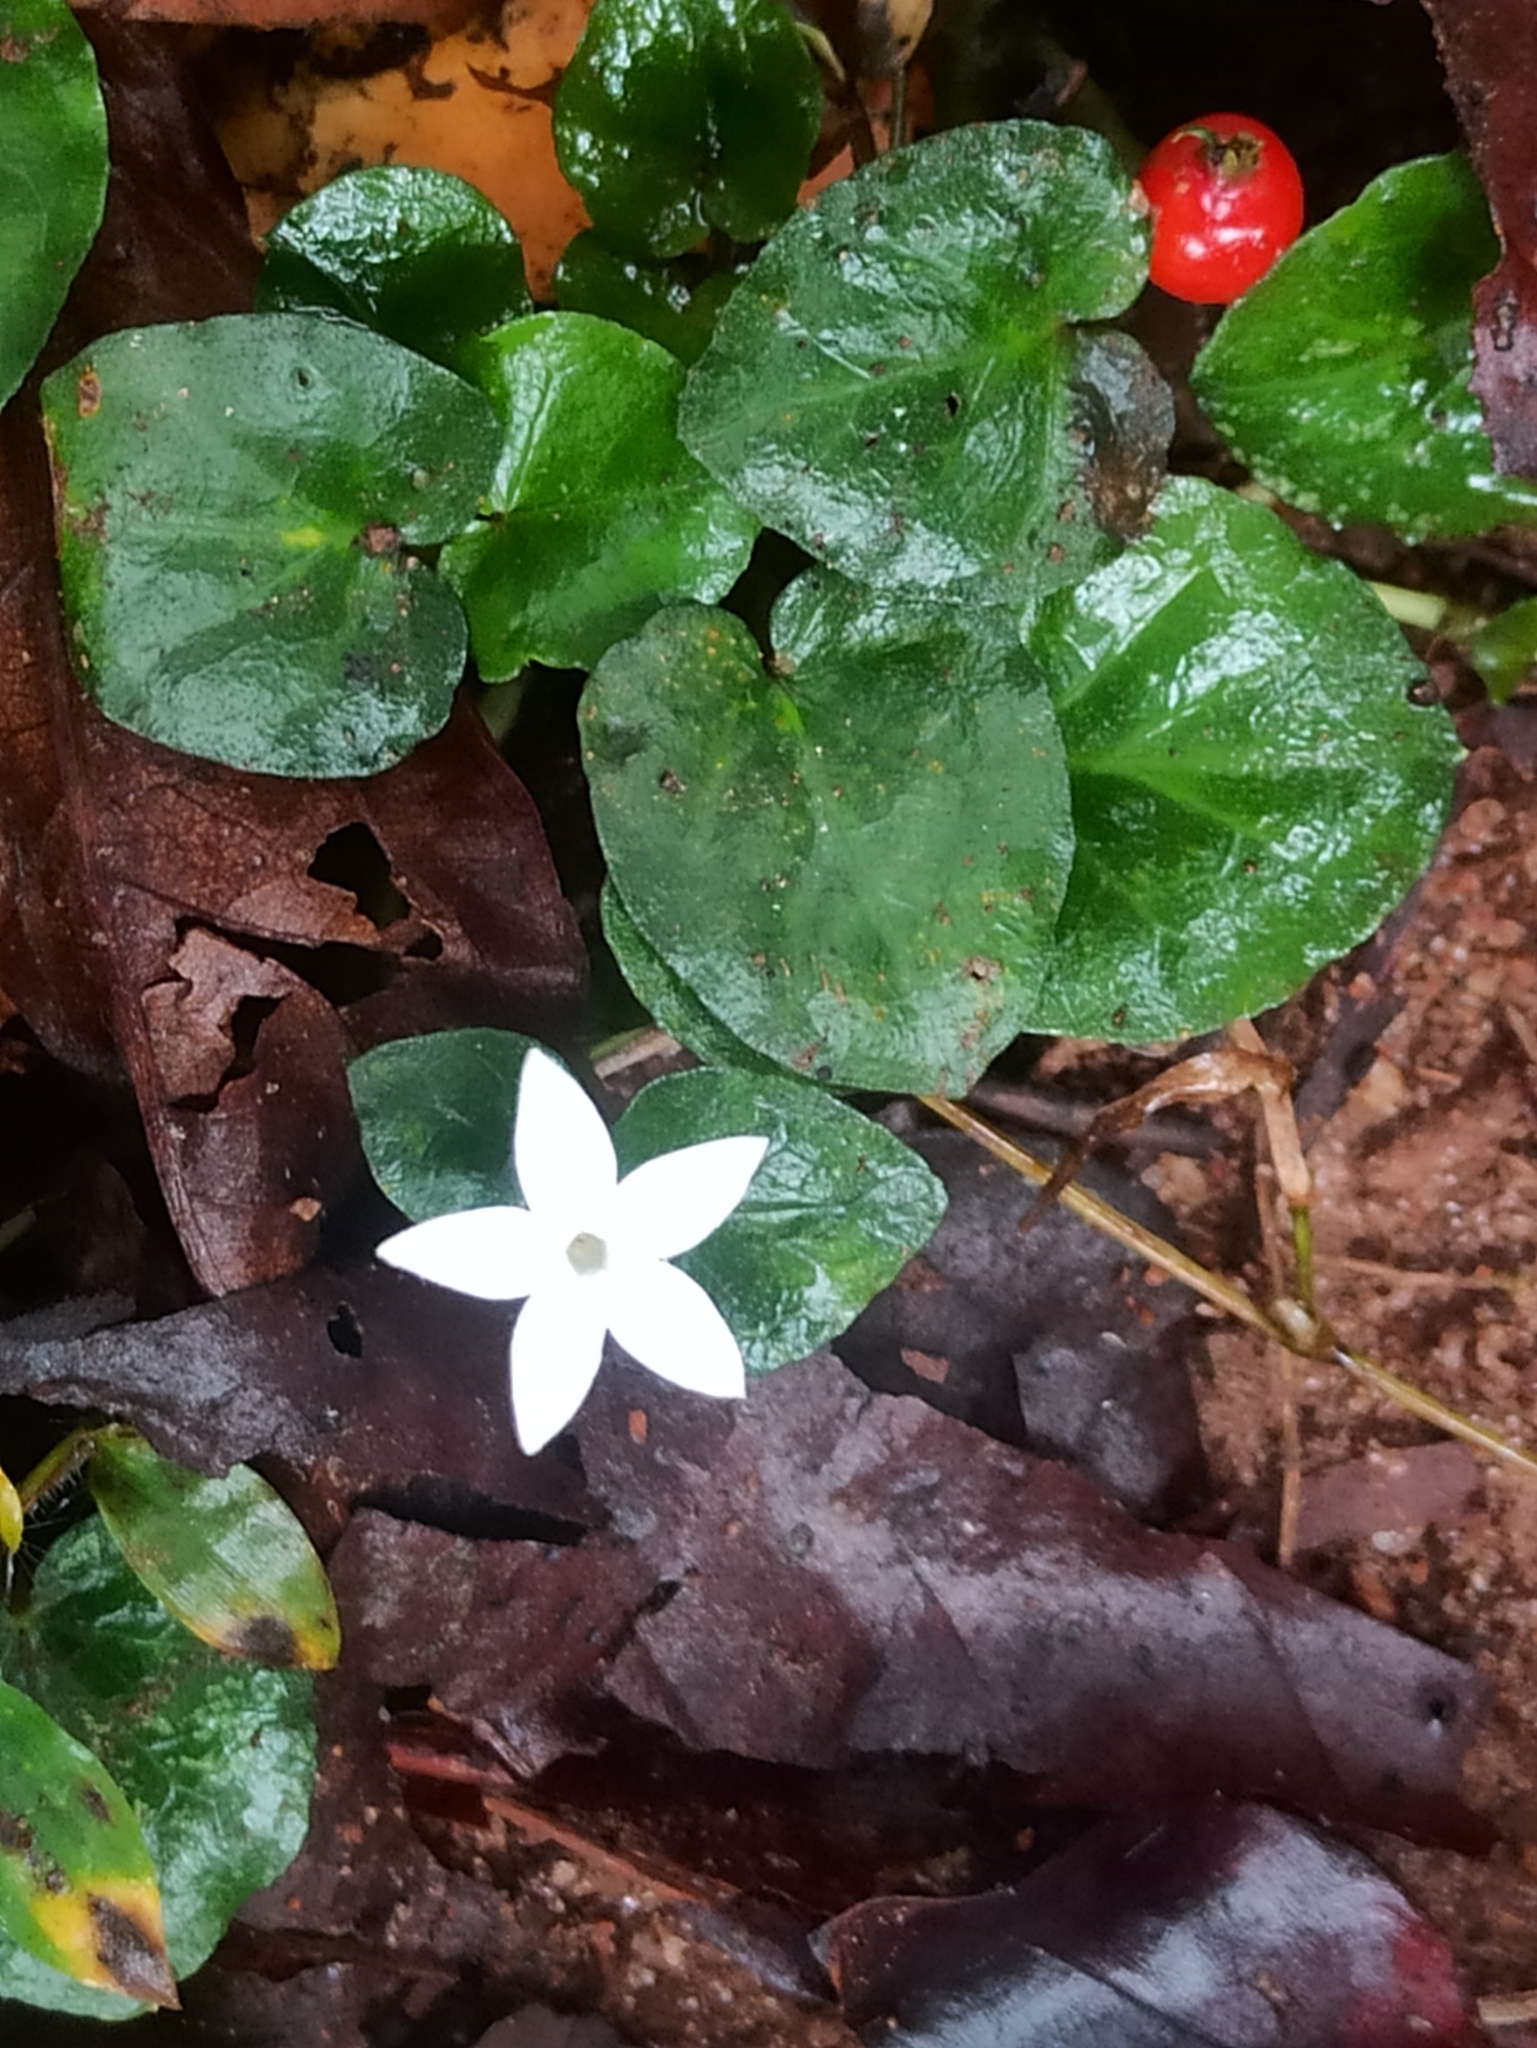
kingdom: Plantae
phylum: Tracheophyta
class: Magnoliopsida
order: Gentianales
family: Rubiaceae
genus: Geophila
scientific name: Geophila herbacea
